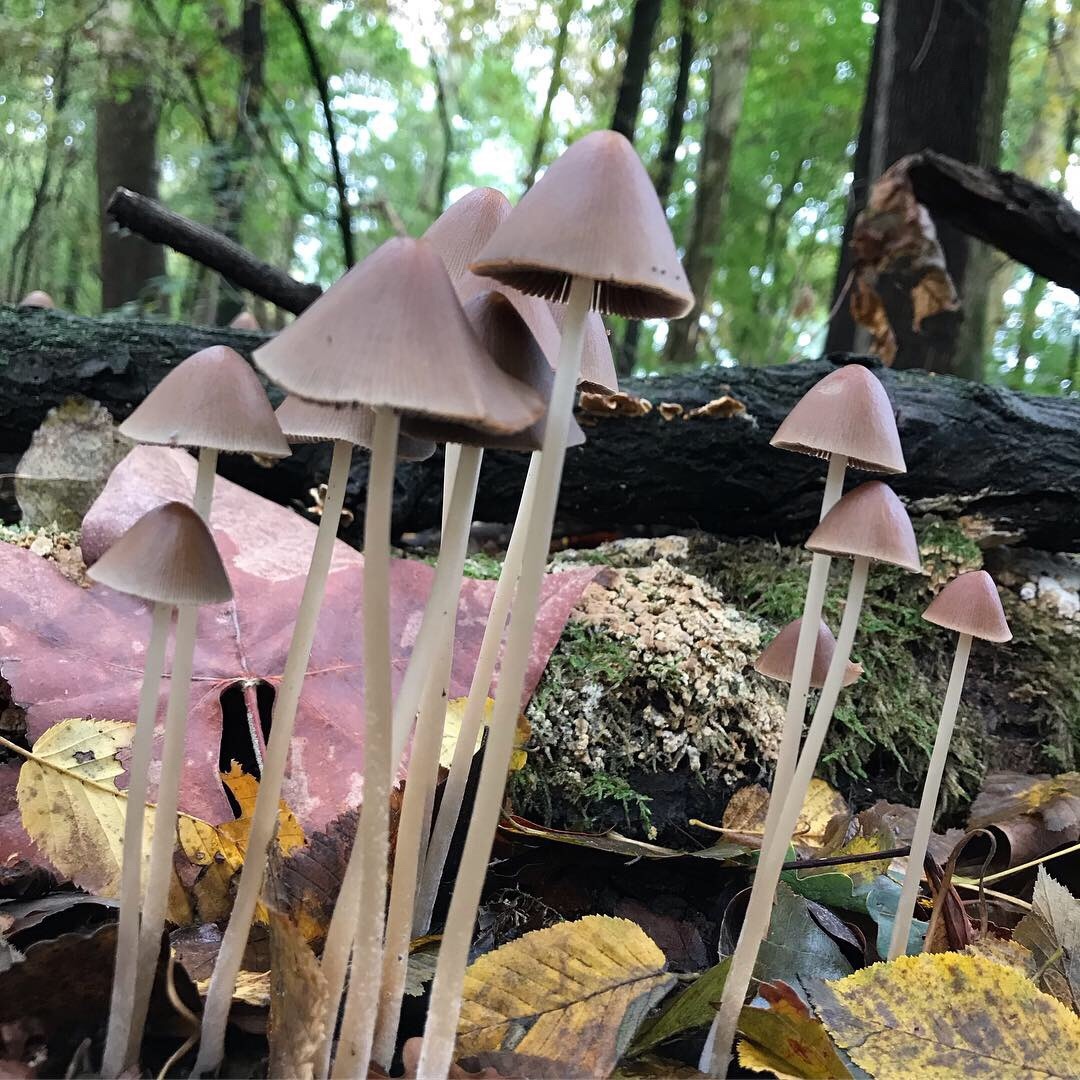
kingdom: Fungi
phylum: Basidiomycota
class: Agaricomycetes
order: Agaricales
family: Psathyrellaceae
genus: Parasola
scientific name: Parasola conopilea
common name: Conical brittlestem
